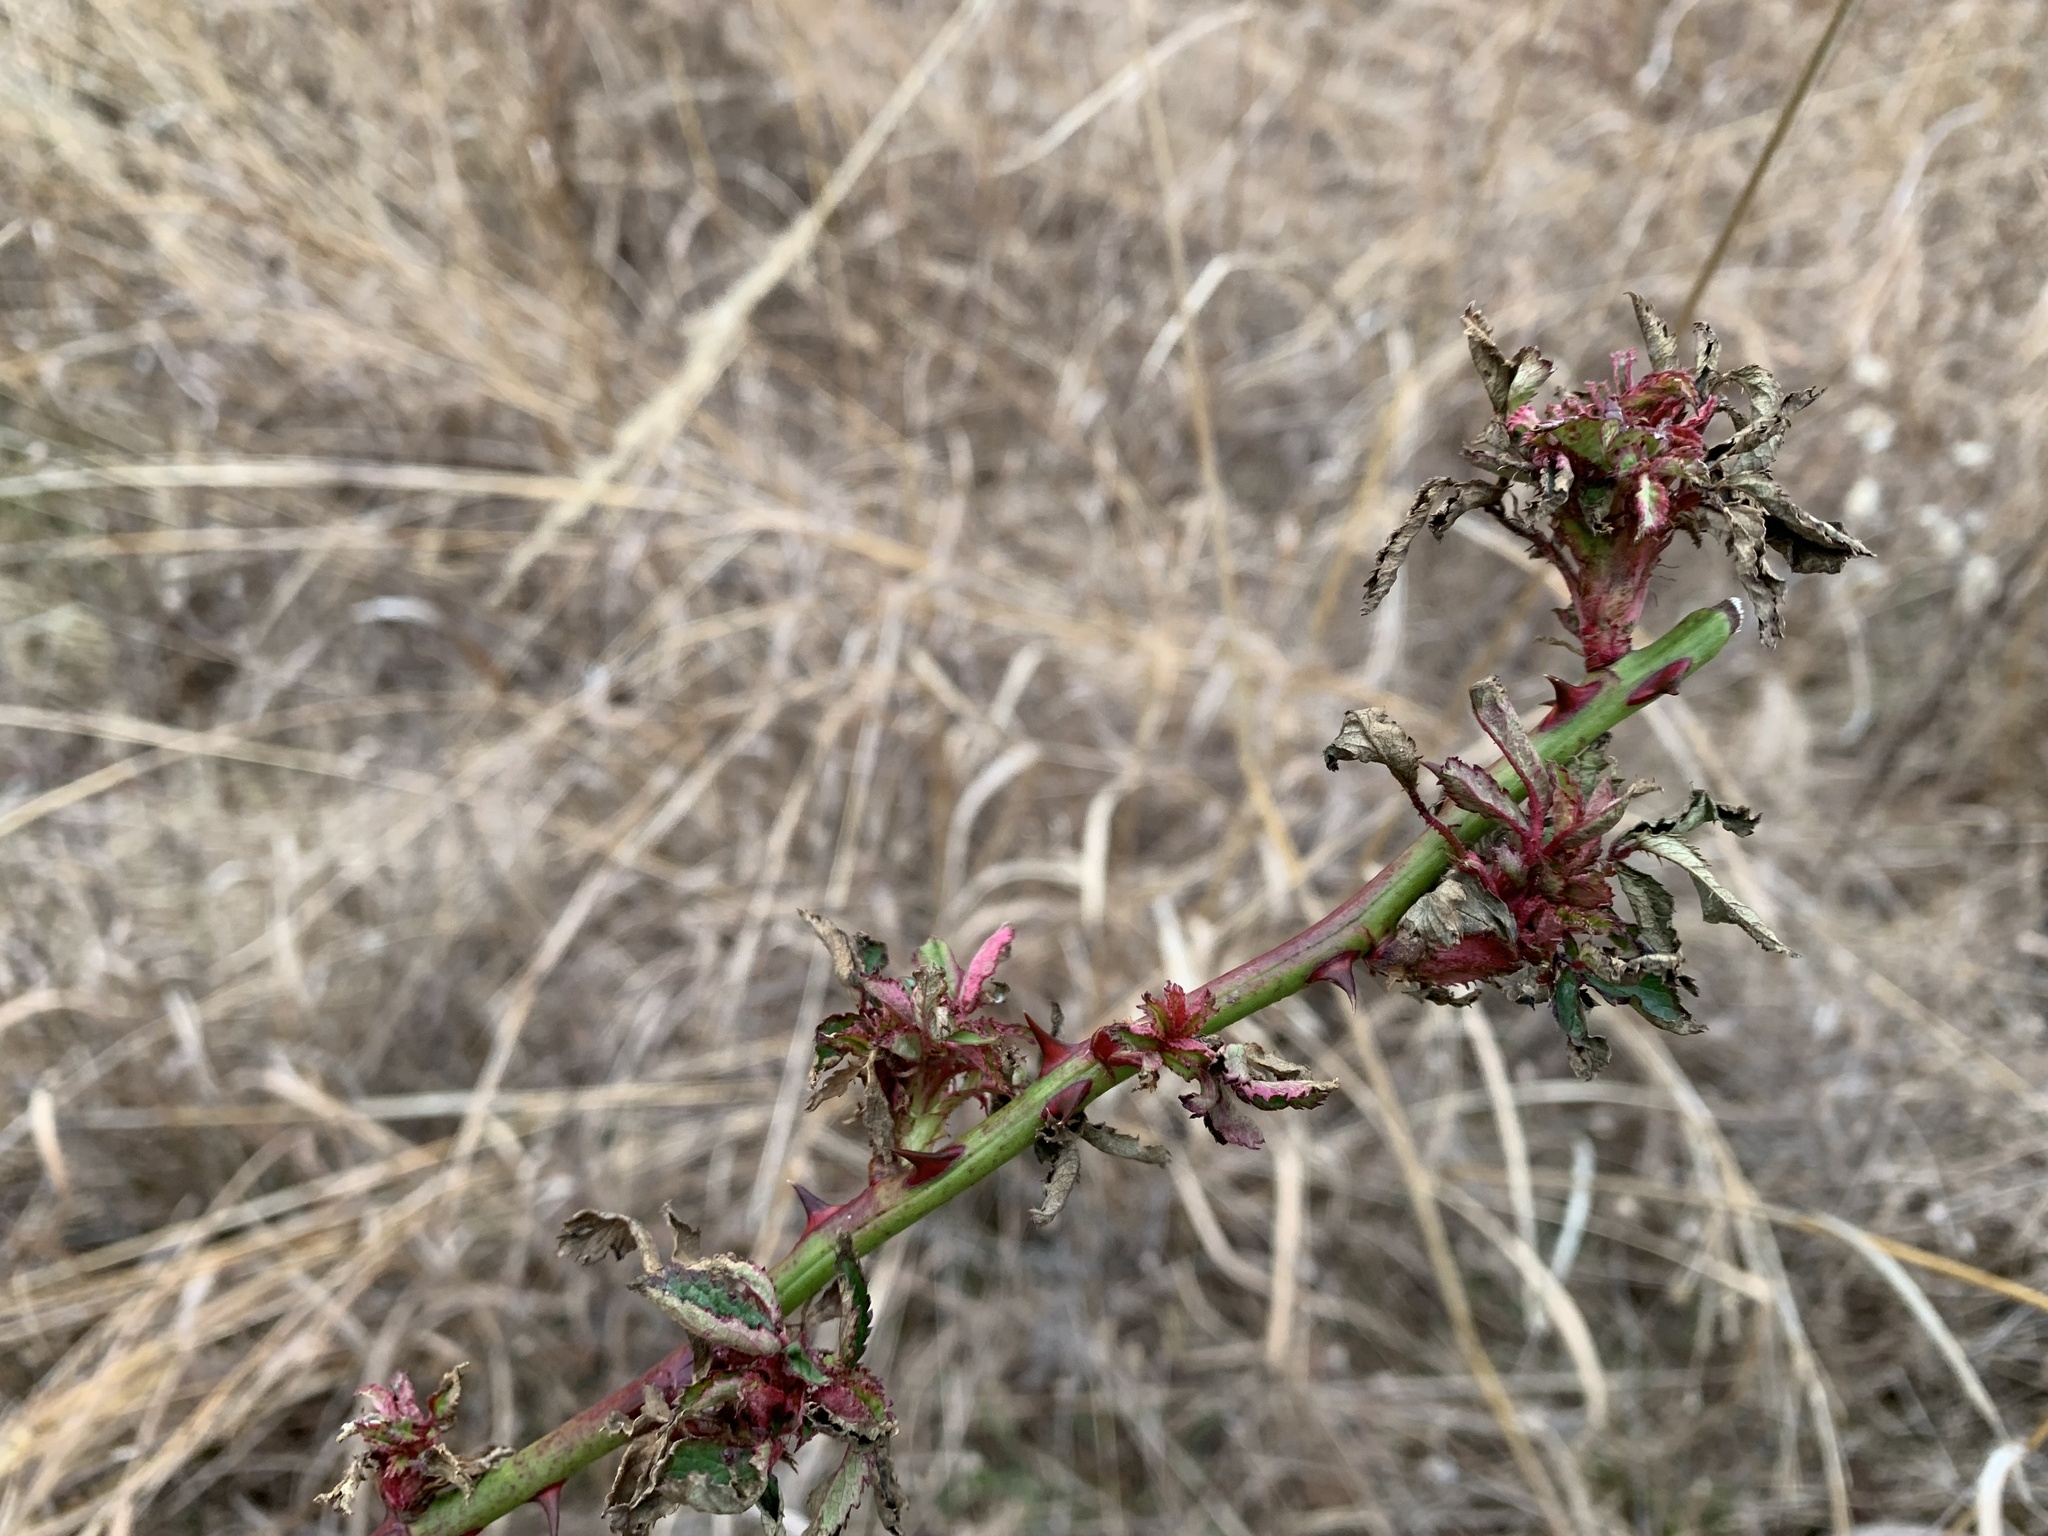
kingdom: Viruses
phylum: Negarnaviricota
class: Ellioviricetes
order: Bunyavirales
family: Fimoviridae
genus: Emaravirus
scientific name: Emaravirus rosae
